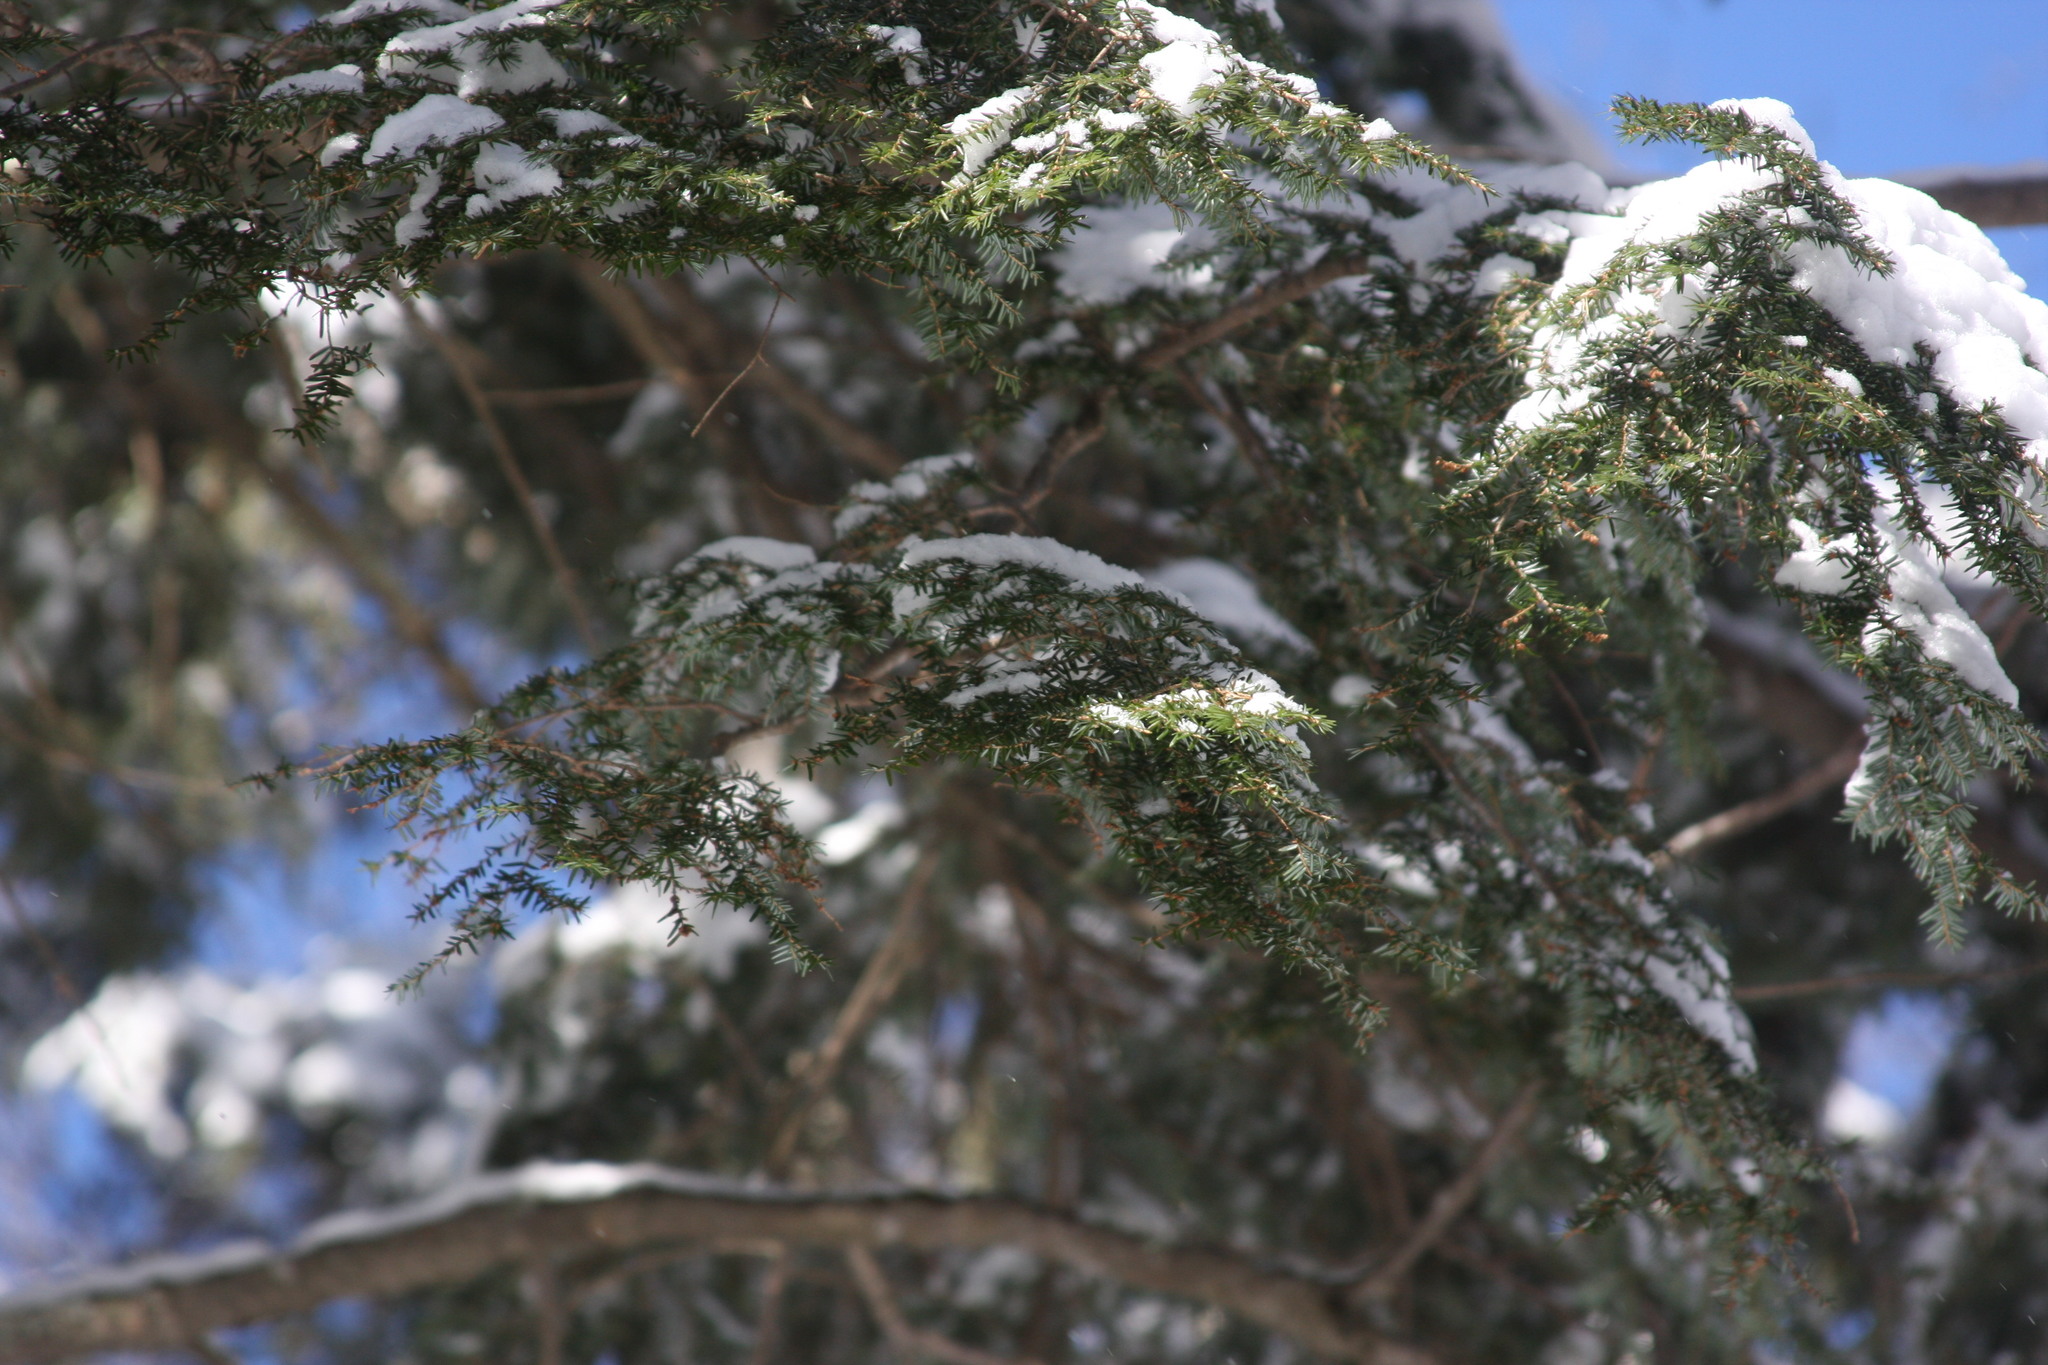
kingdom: Plantae
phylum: Tracheophyta
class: Pinopsida
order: Pinales
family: Pinaceae
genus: Tsuga
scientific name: Tsuga canadensis
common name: Eastern hemlock
